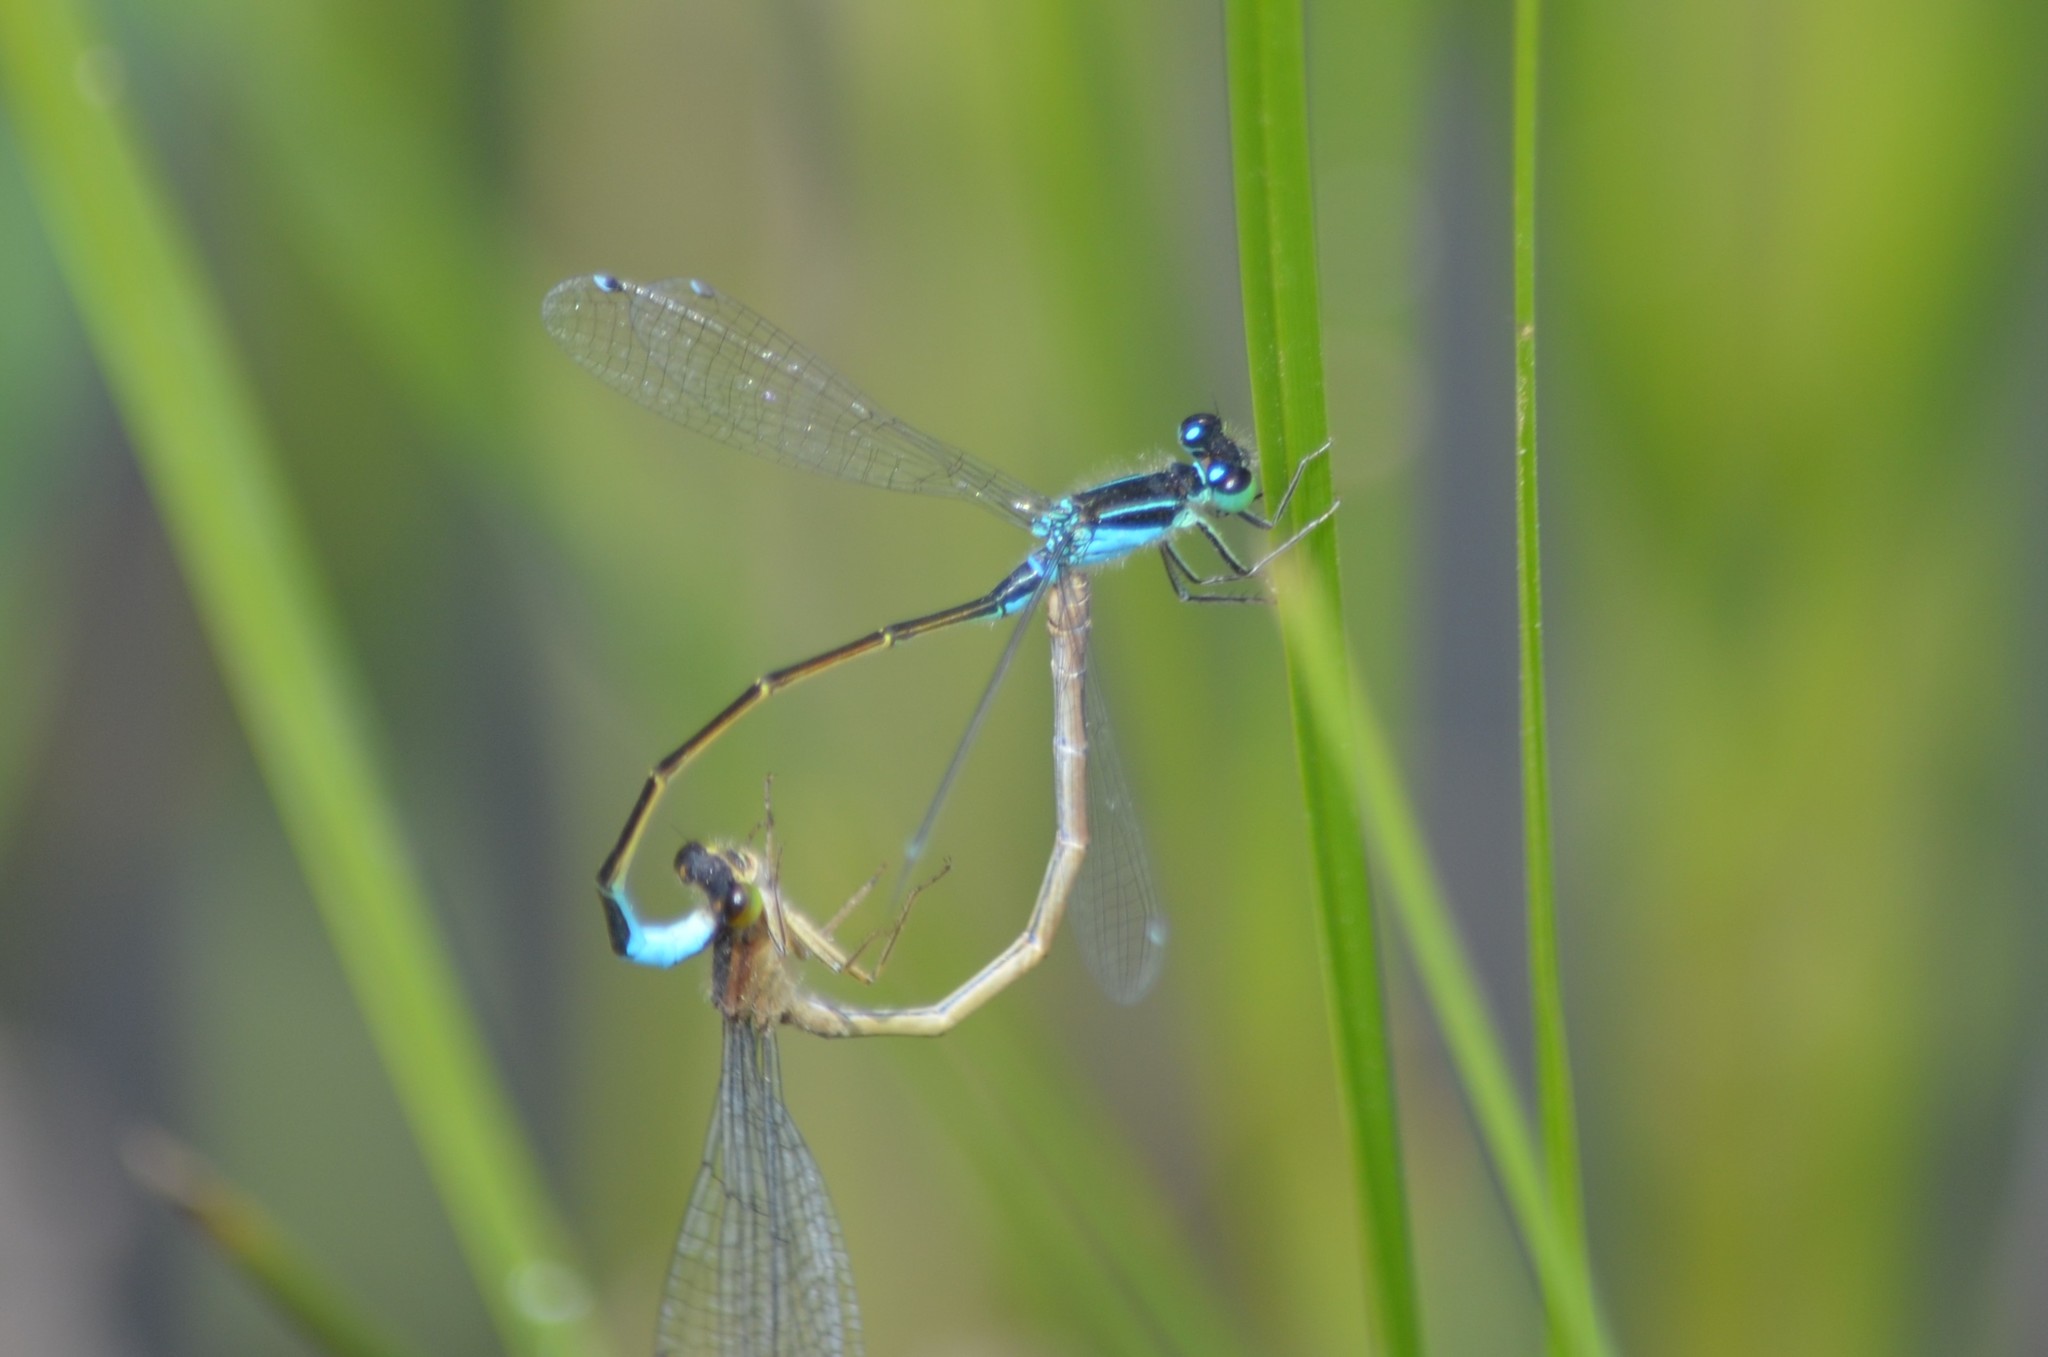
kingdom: Animalia
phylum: Arthropoda
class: Insecta
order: Odonata
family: Coenagrionidae
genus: Ischnura
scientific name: Ischnura elegans
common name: Blue-tailed damselfly
